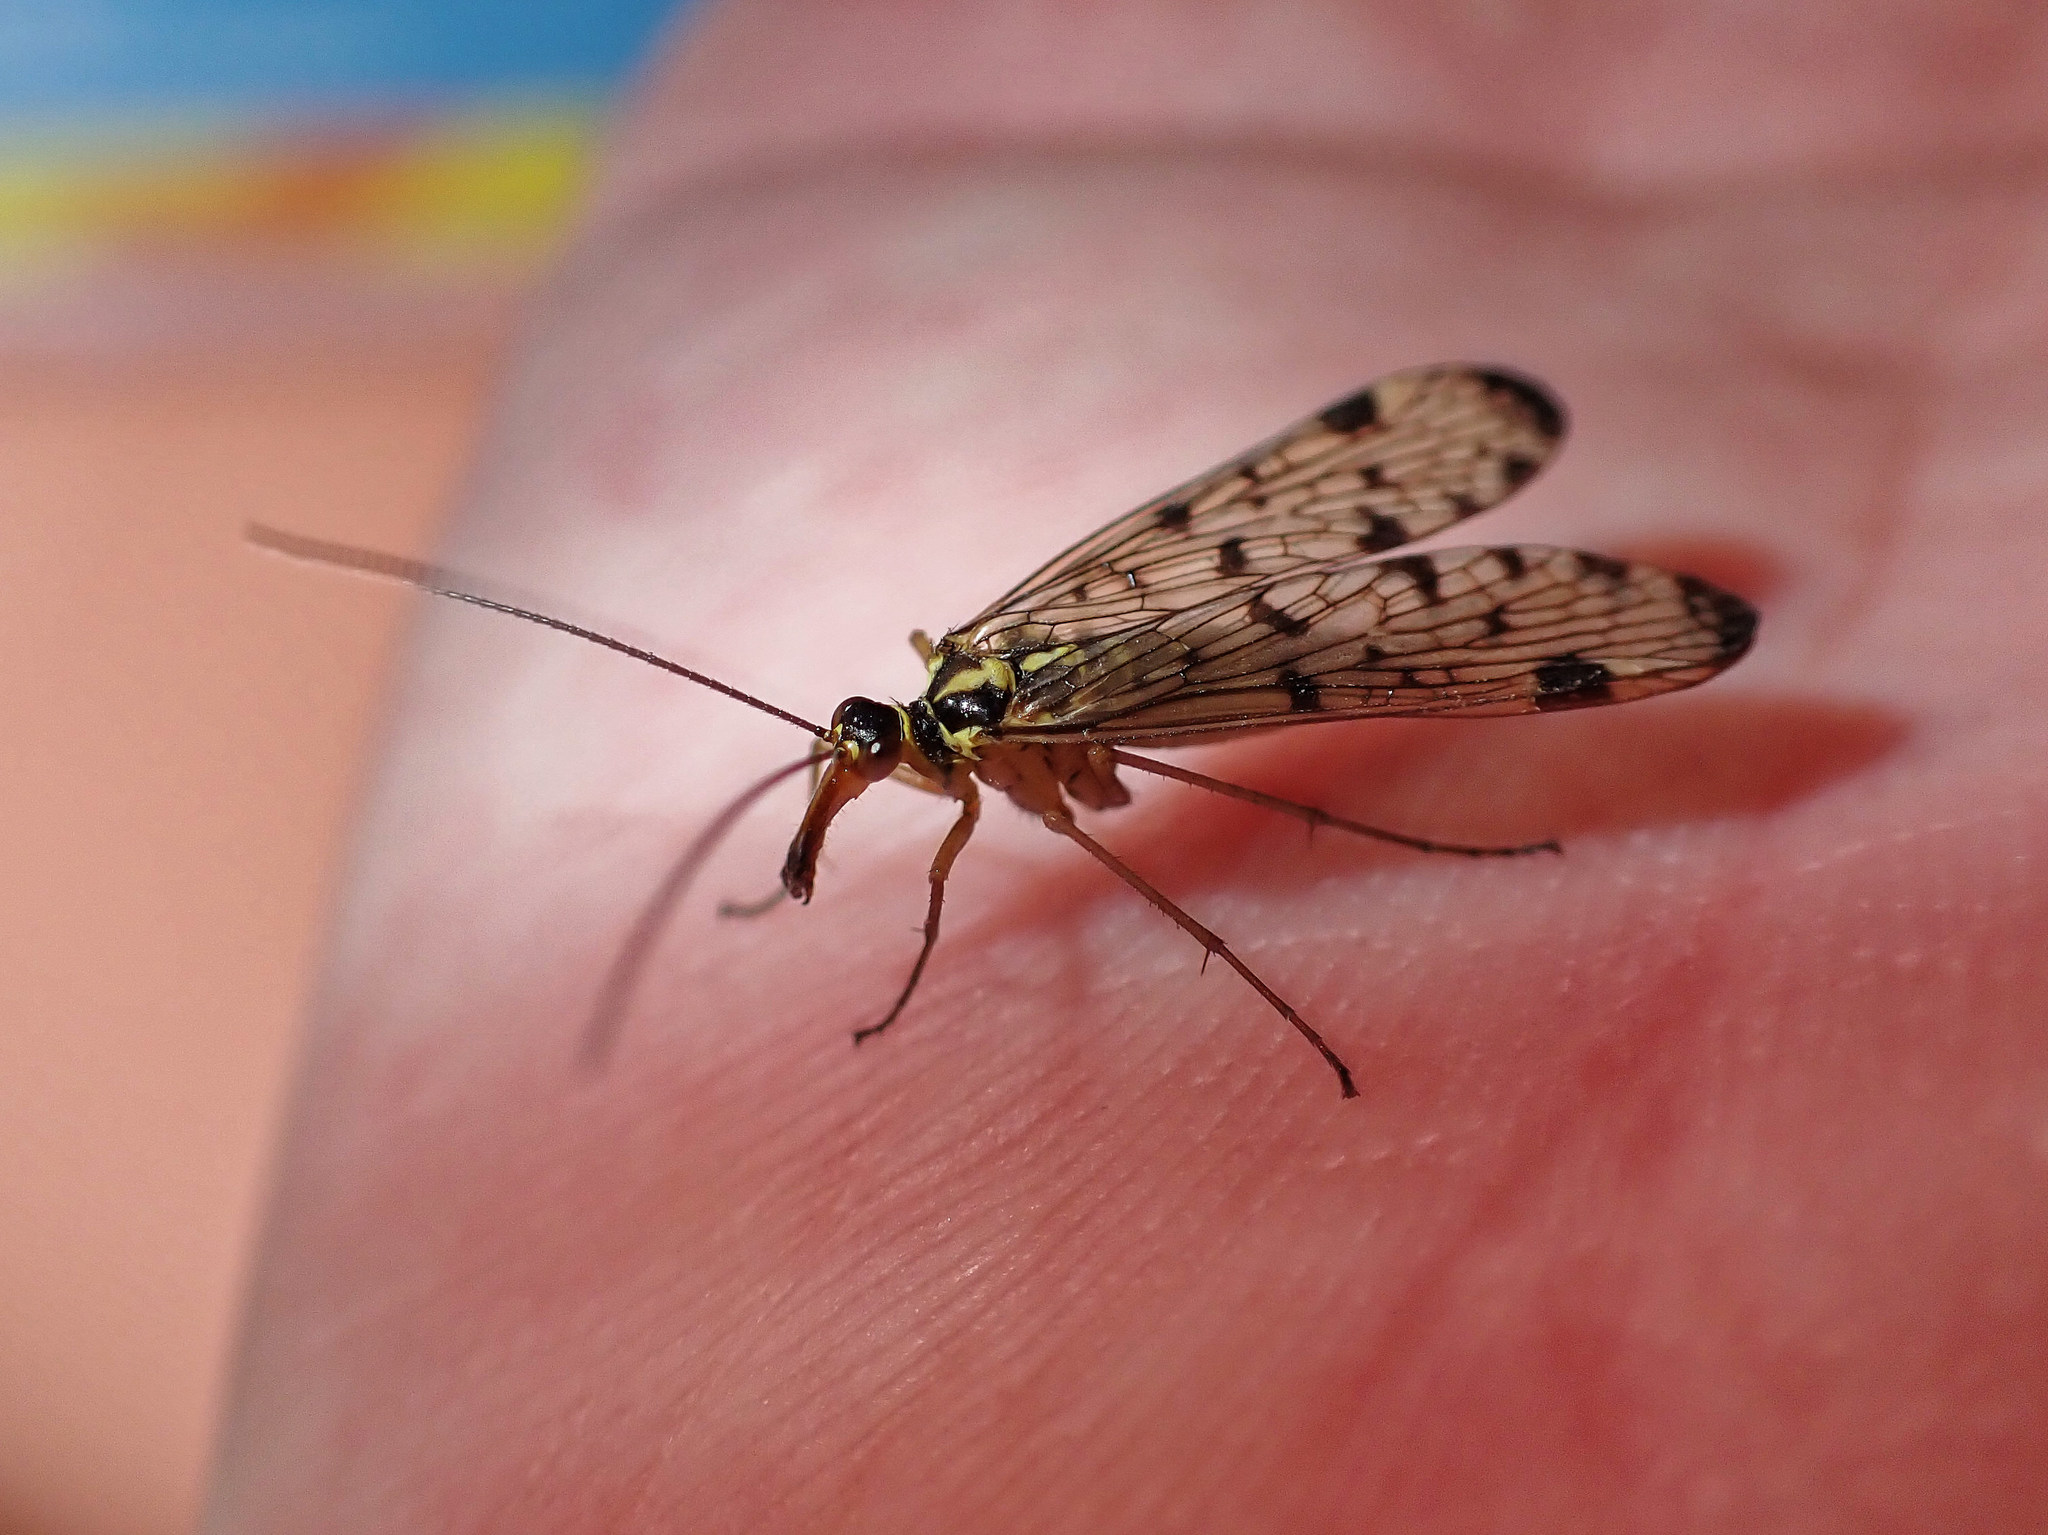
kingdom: Animalia
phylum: Arthropoda
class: Insecta
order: Mecoptera
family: Panorpidae
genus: Panorpa
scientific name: Panorpa germanica
